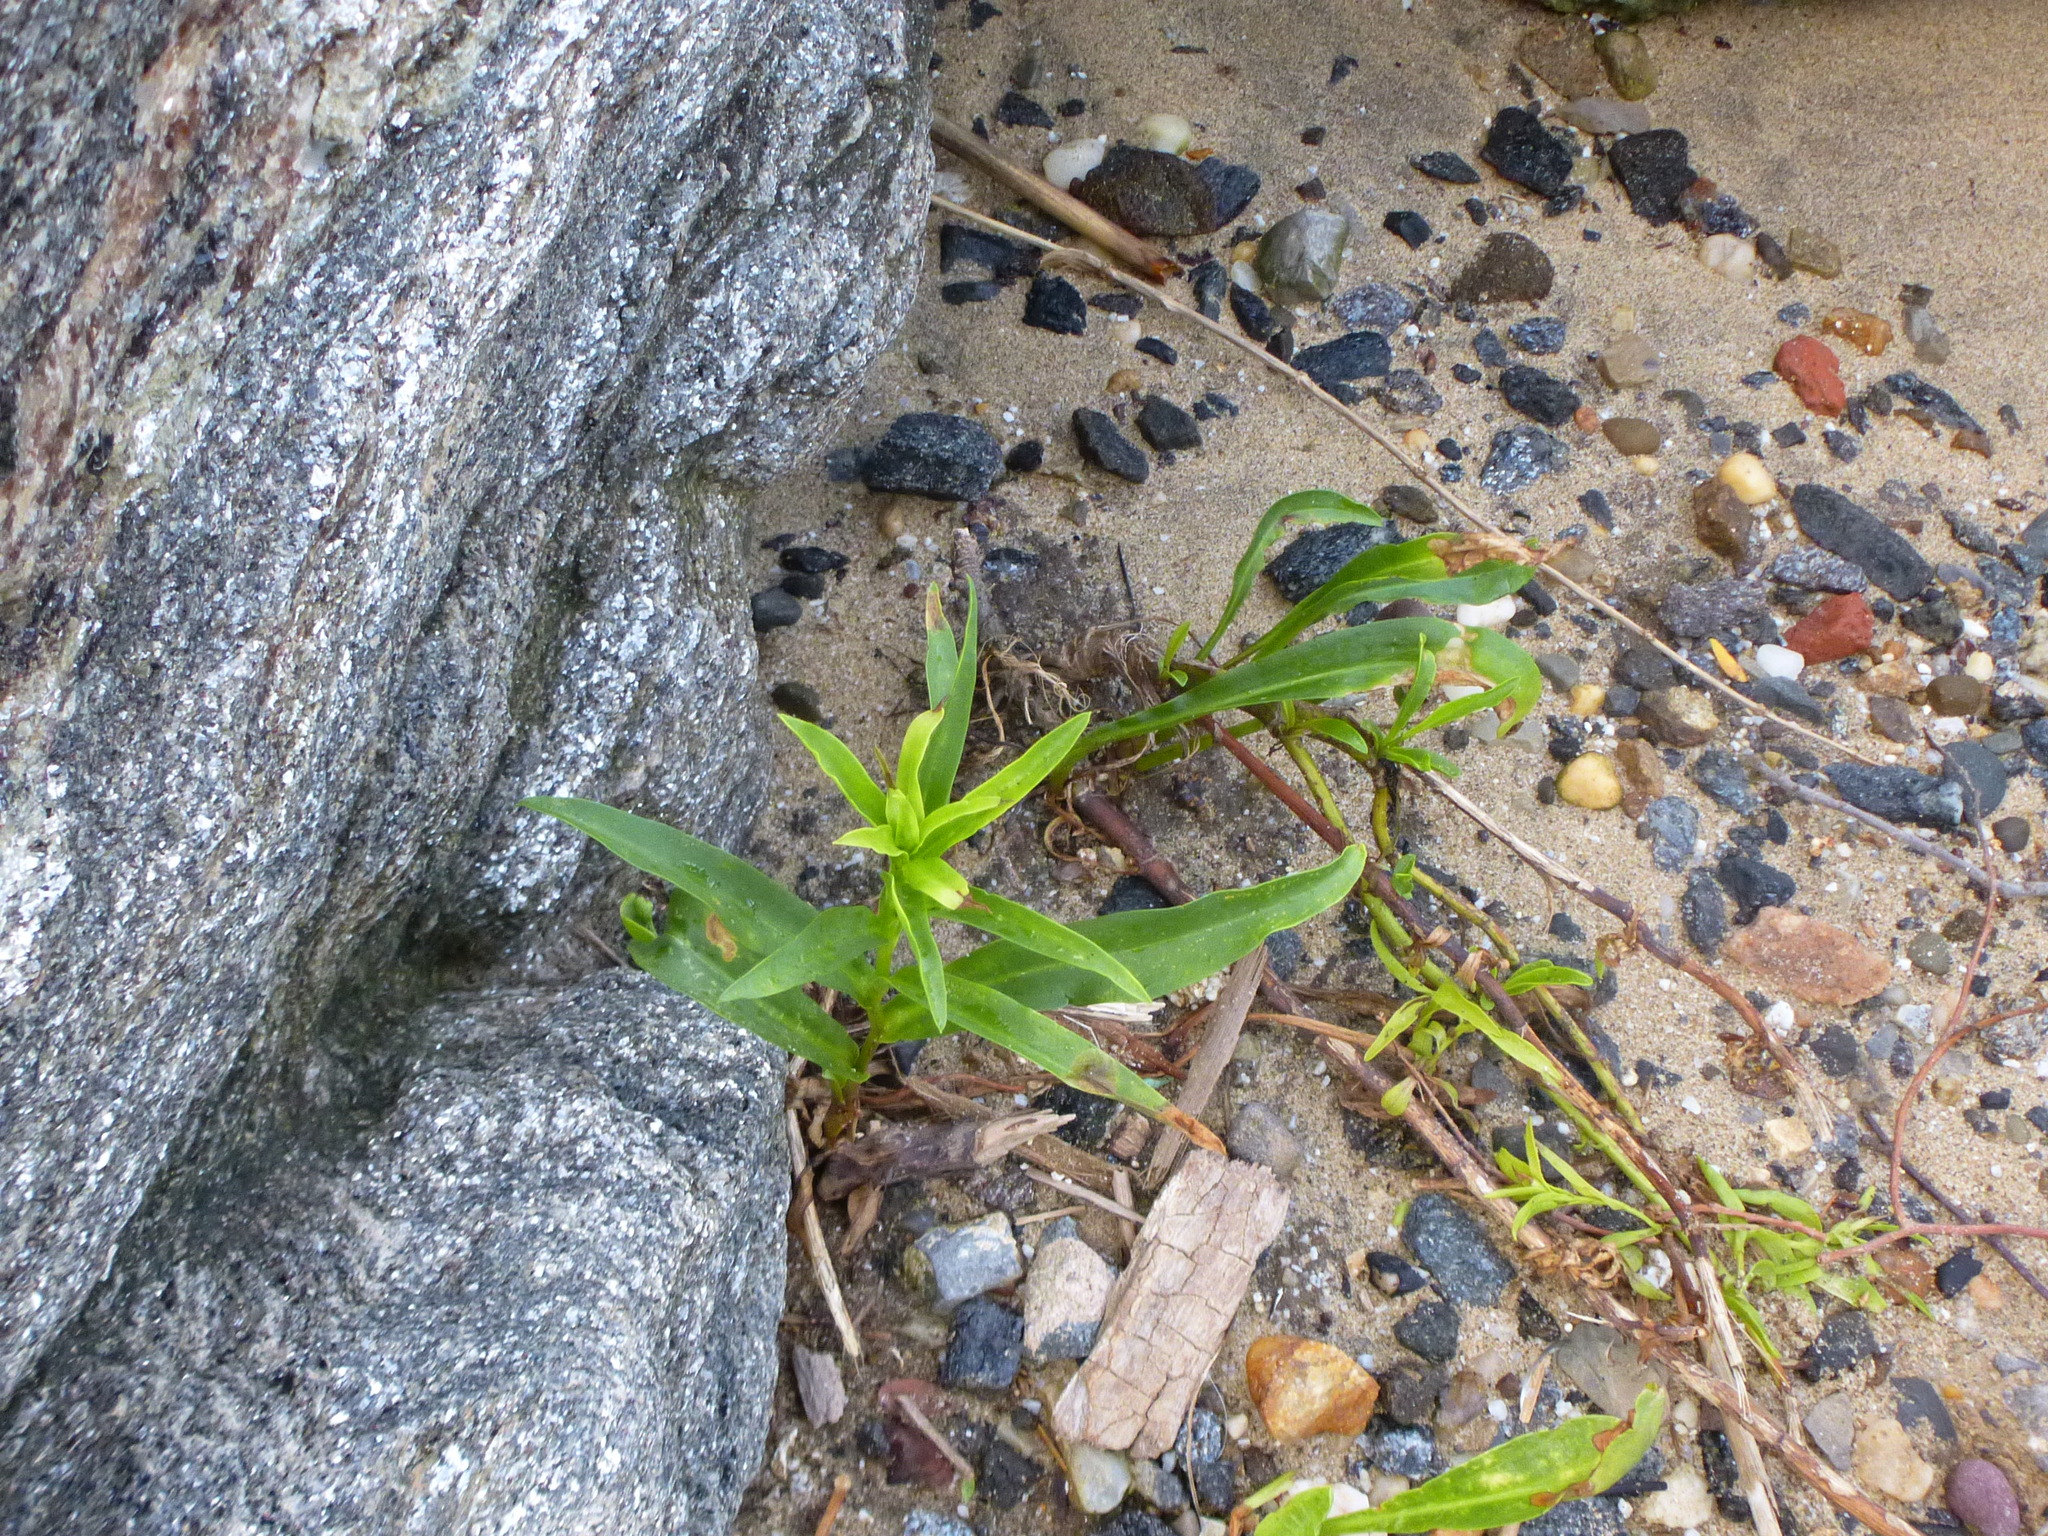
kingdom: Plantae
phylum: Tracheophyta
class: Magnoliopsida
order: Asterales
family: Asteraceae
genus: Solidago
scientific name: Solidago sempervirens
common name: Salt-marsh goldenrod
